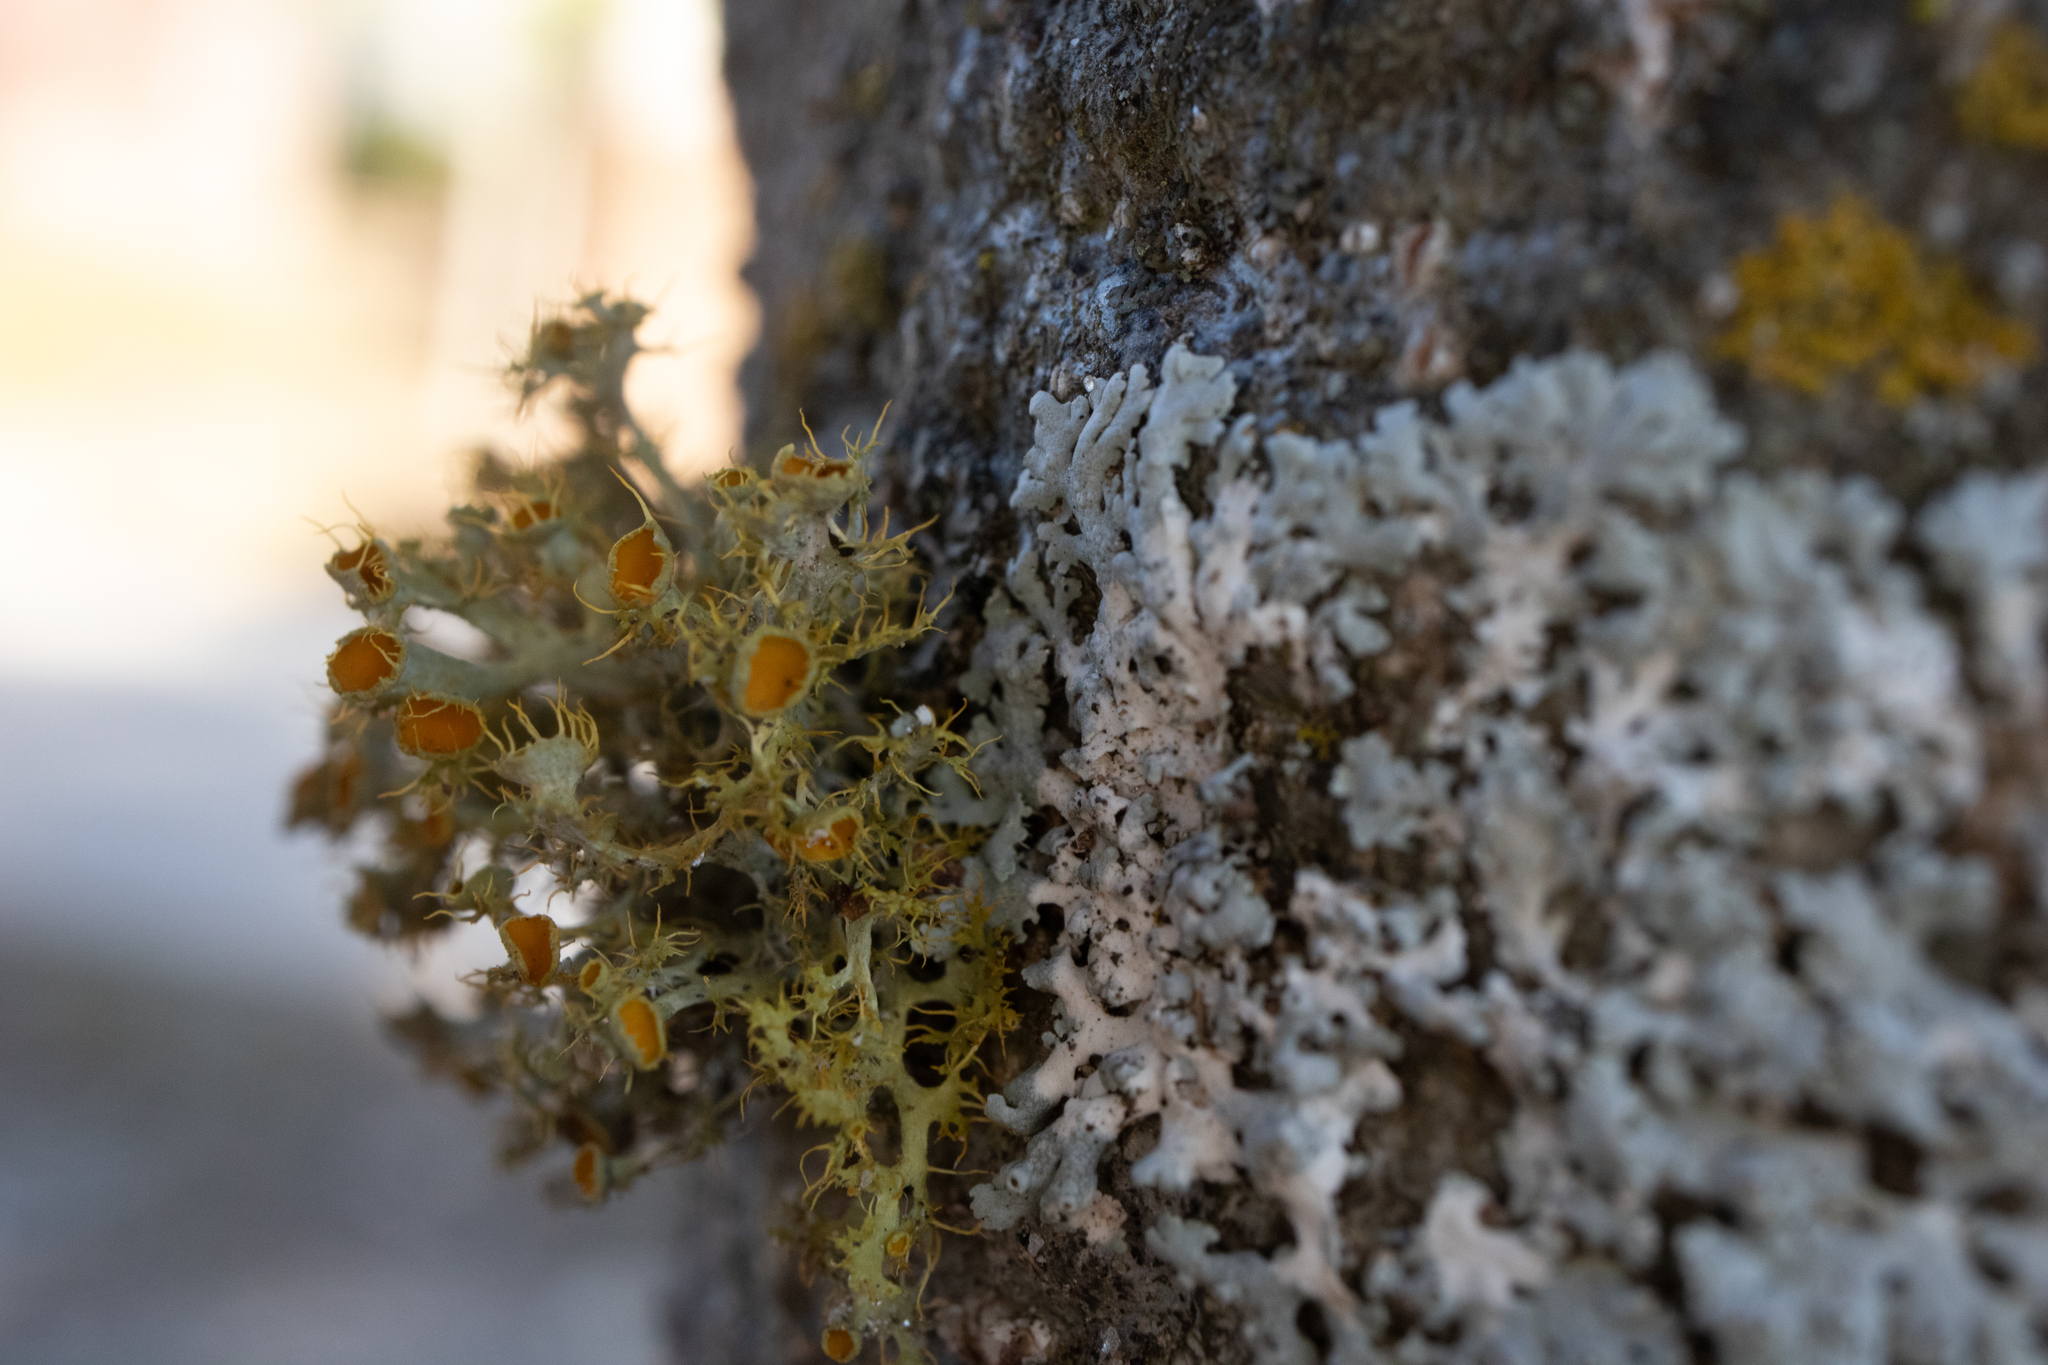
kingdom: Fungi
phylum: Ascomycota
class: Lecanoromycetes
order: Teloschistales
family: Teloschistaceae
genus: Niorma
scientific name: Niorma chrysophthalma
